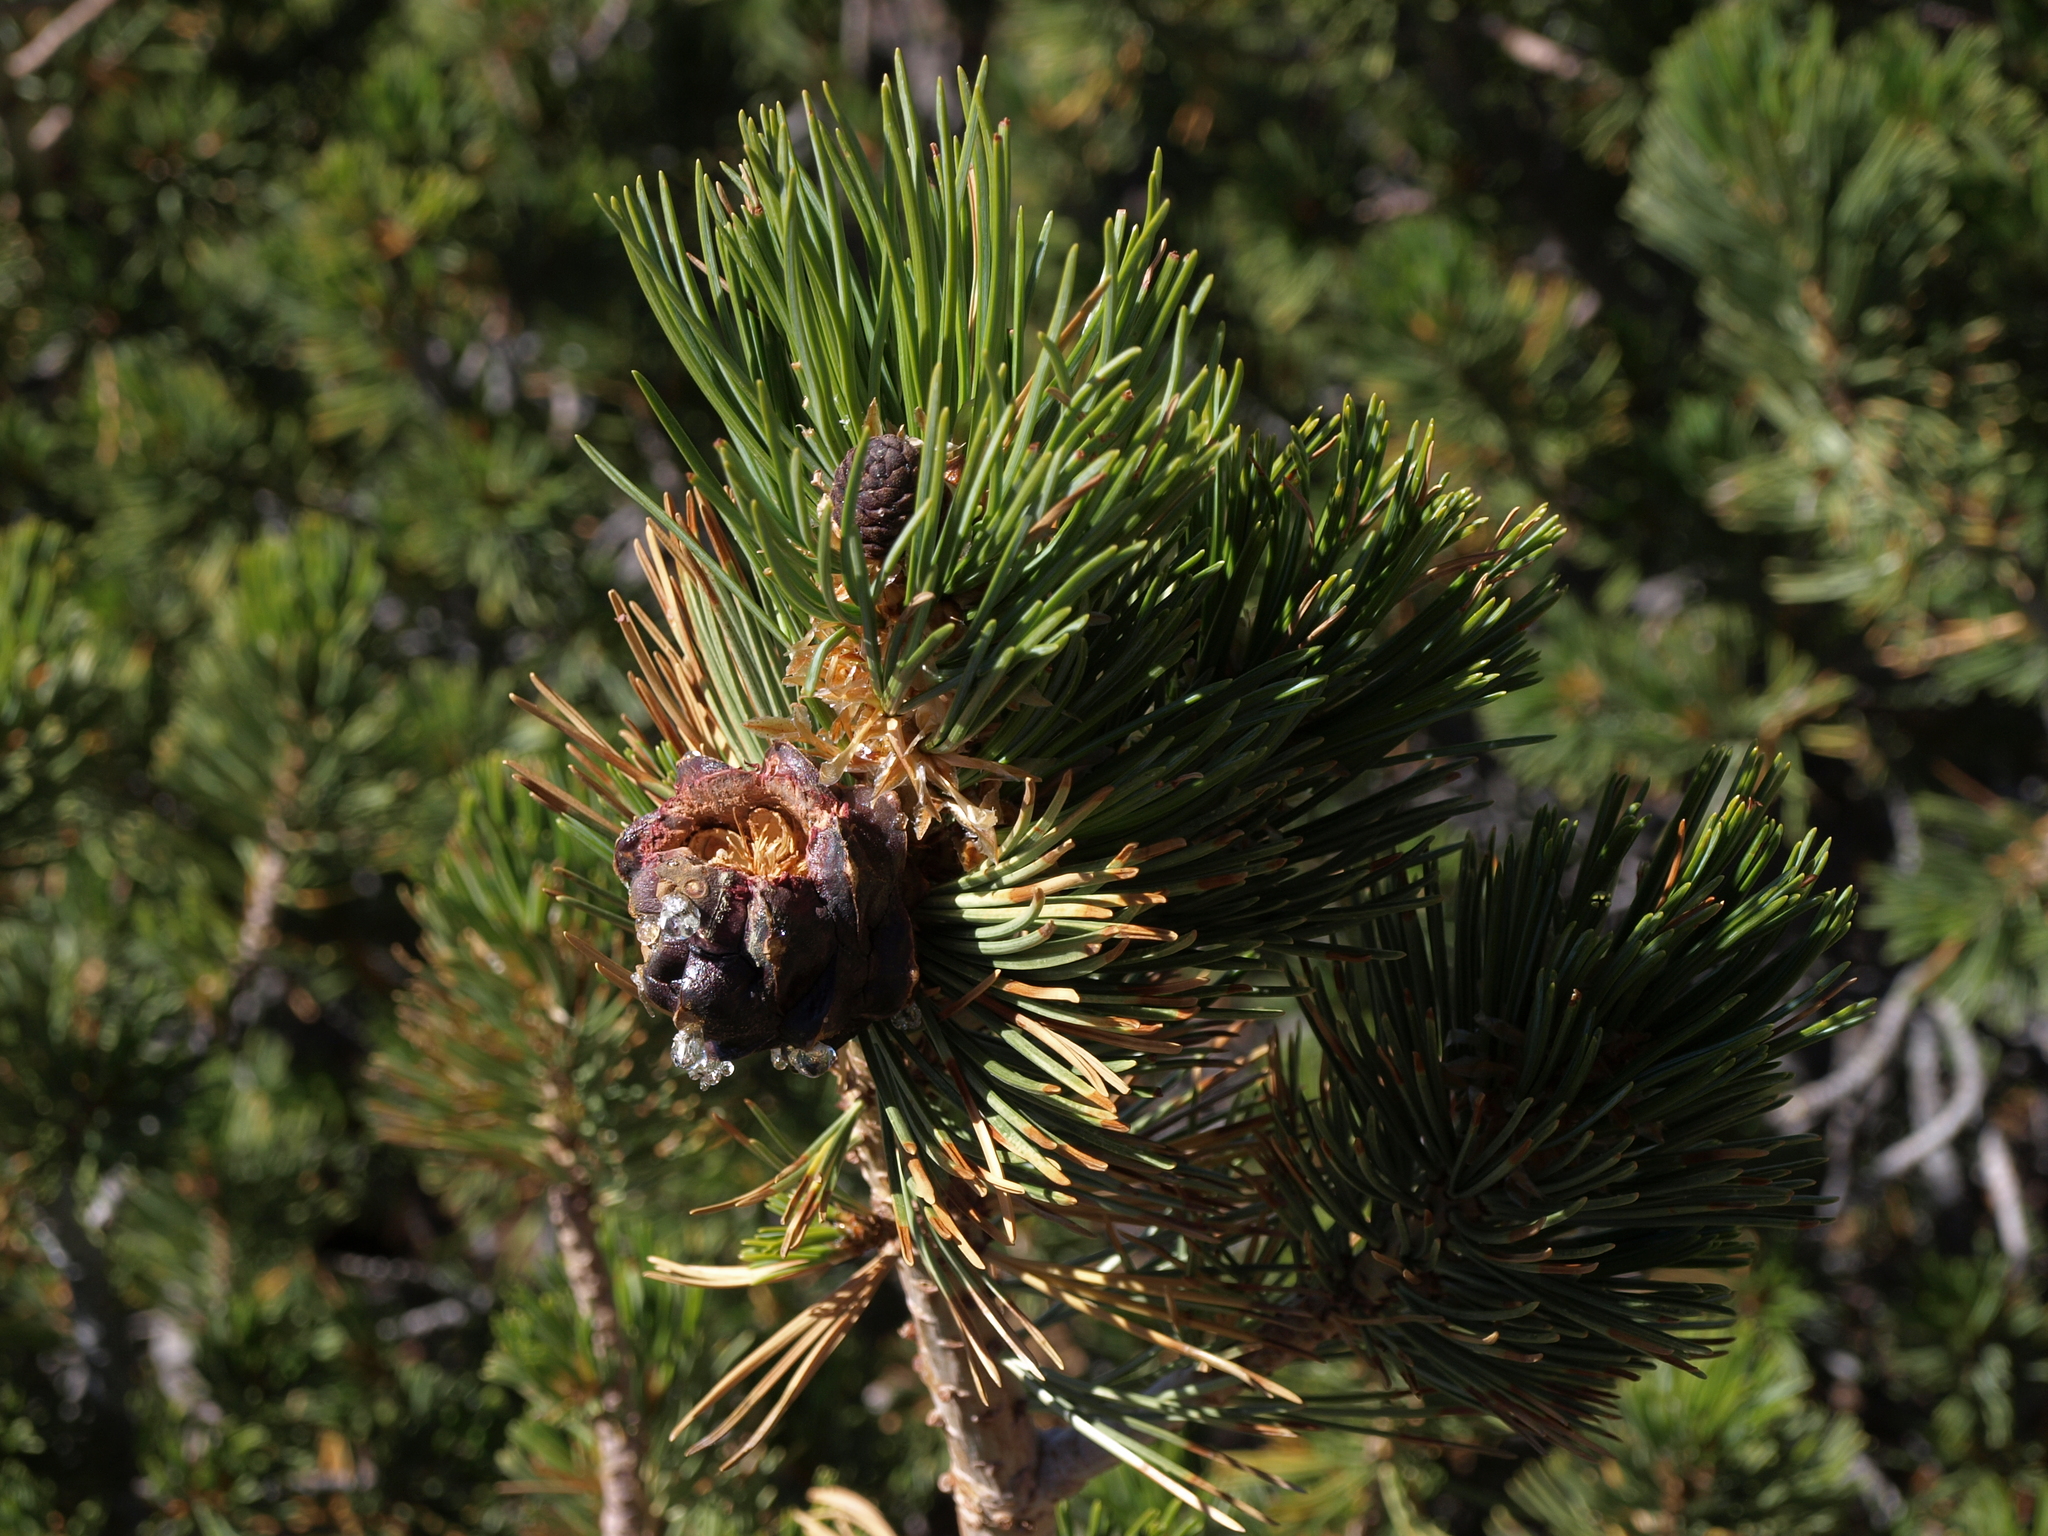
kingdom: Plantae
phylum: Tracheophyta
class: Pinopsida
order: Pinales
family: Pinaceae
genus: Pinus
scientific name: Pinus albicaulis
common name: Whitebark pine
